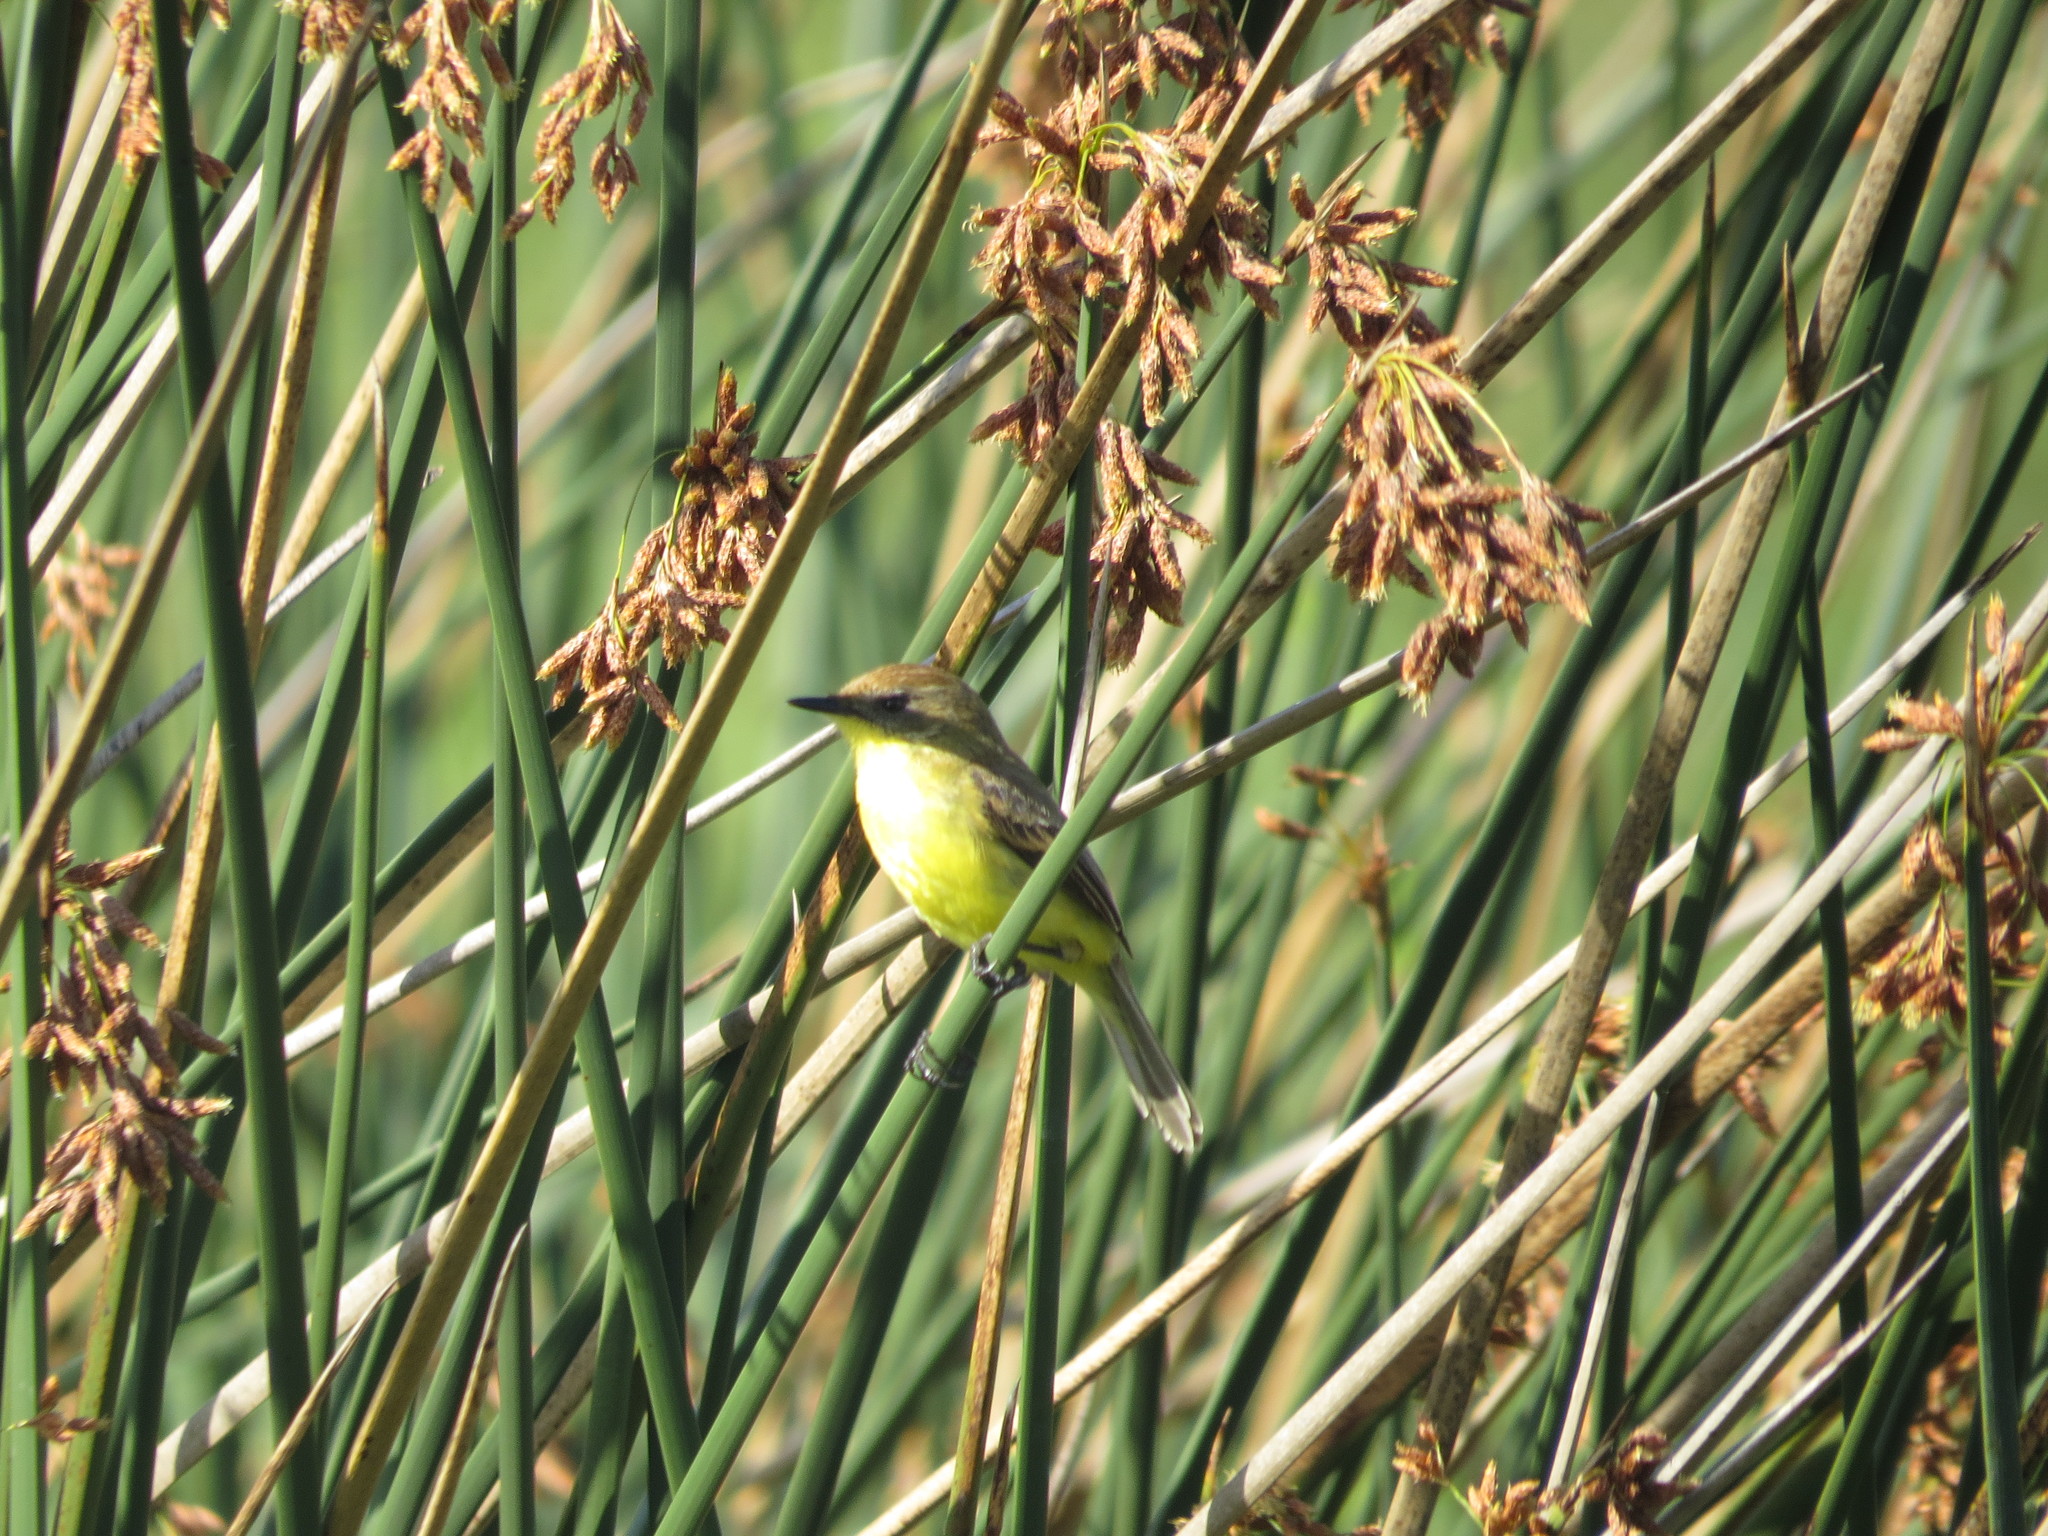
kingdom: Animalia
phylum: Chordata
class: Aves
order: Passeriformes
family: Tyrannidae
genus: Pseudocolopteryx
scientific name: Pseudocolopteryx flaviventris
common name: Warbling doradito
